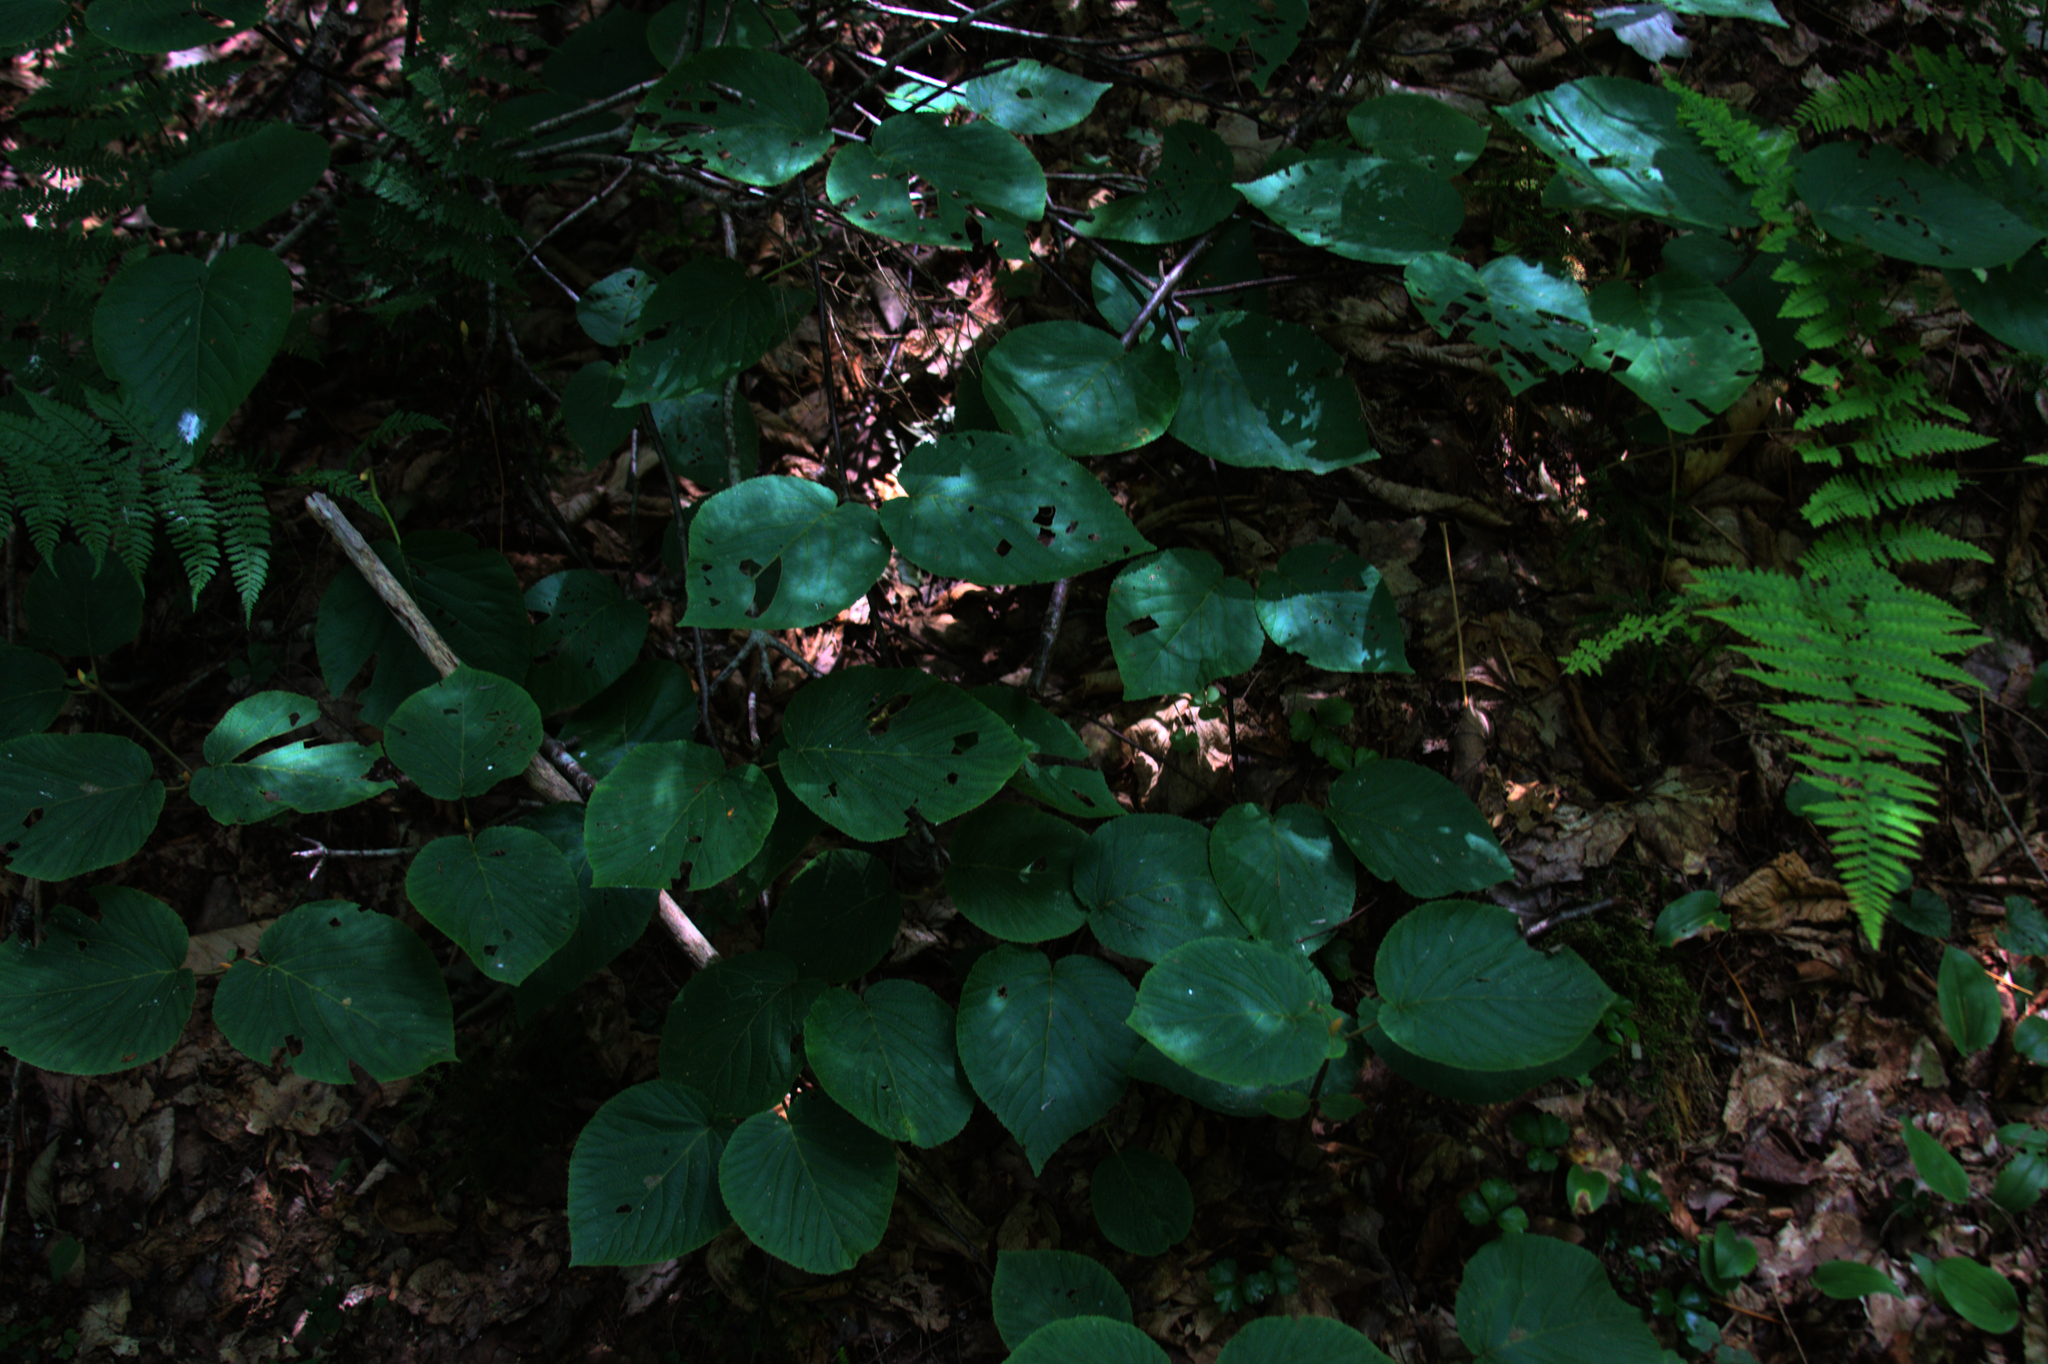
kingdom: Plantae
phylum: Tracheophyta
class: Magnoliopsida
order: Dipsacales
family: Viburnaceae
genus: Viburnum
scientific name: Viburnum lantanoides
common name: Hobblebush
